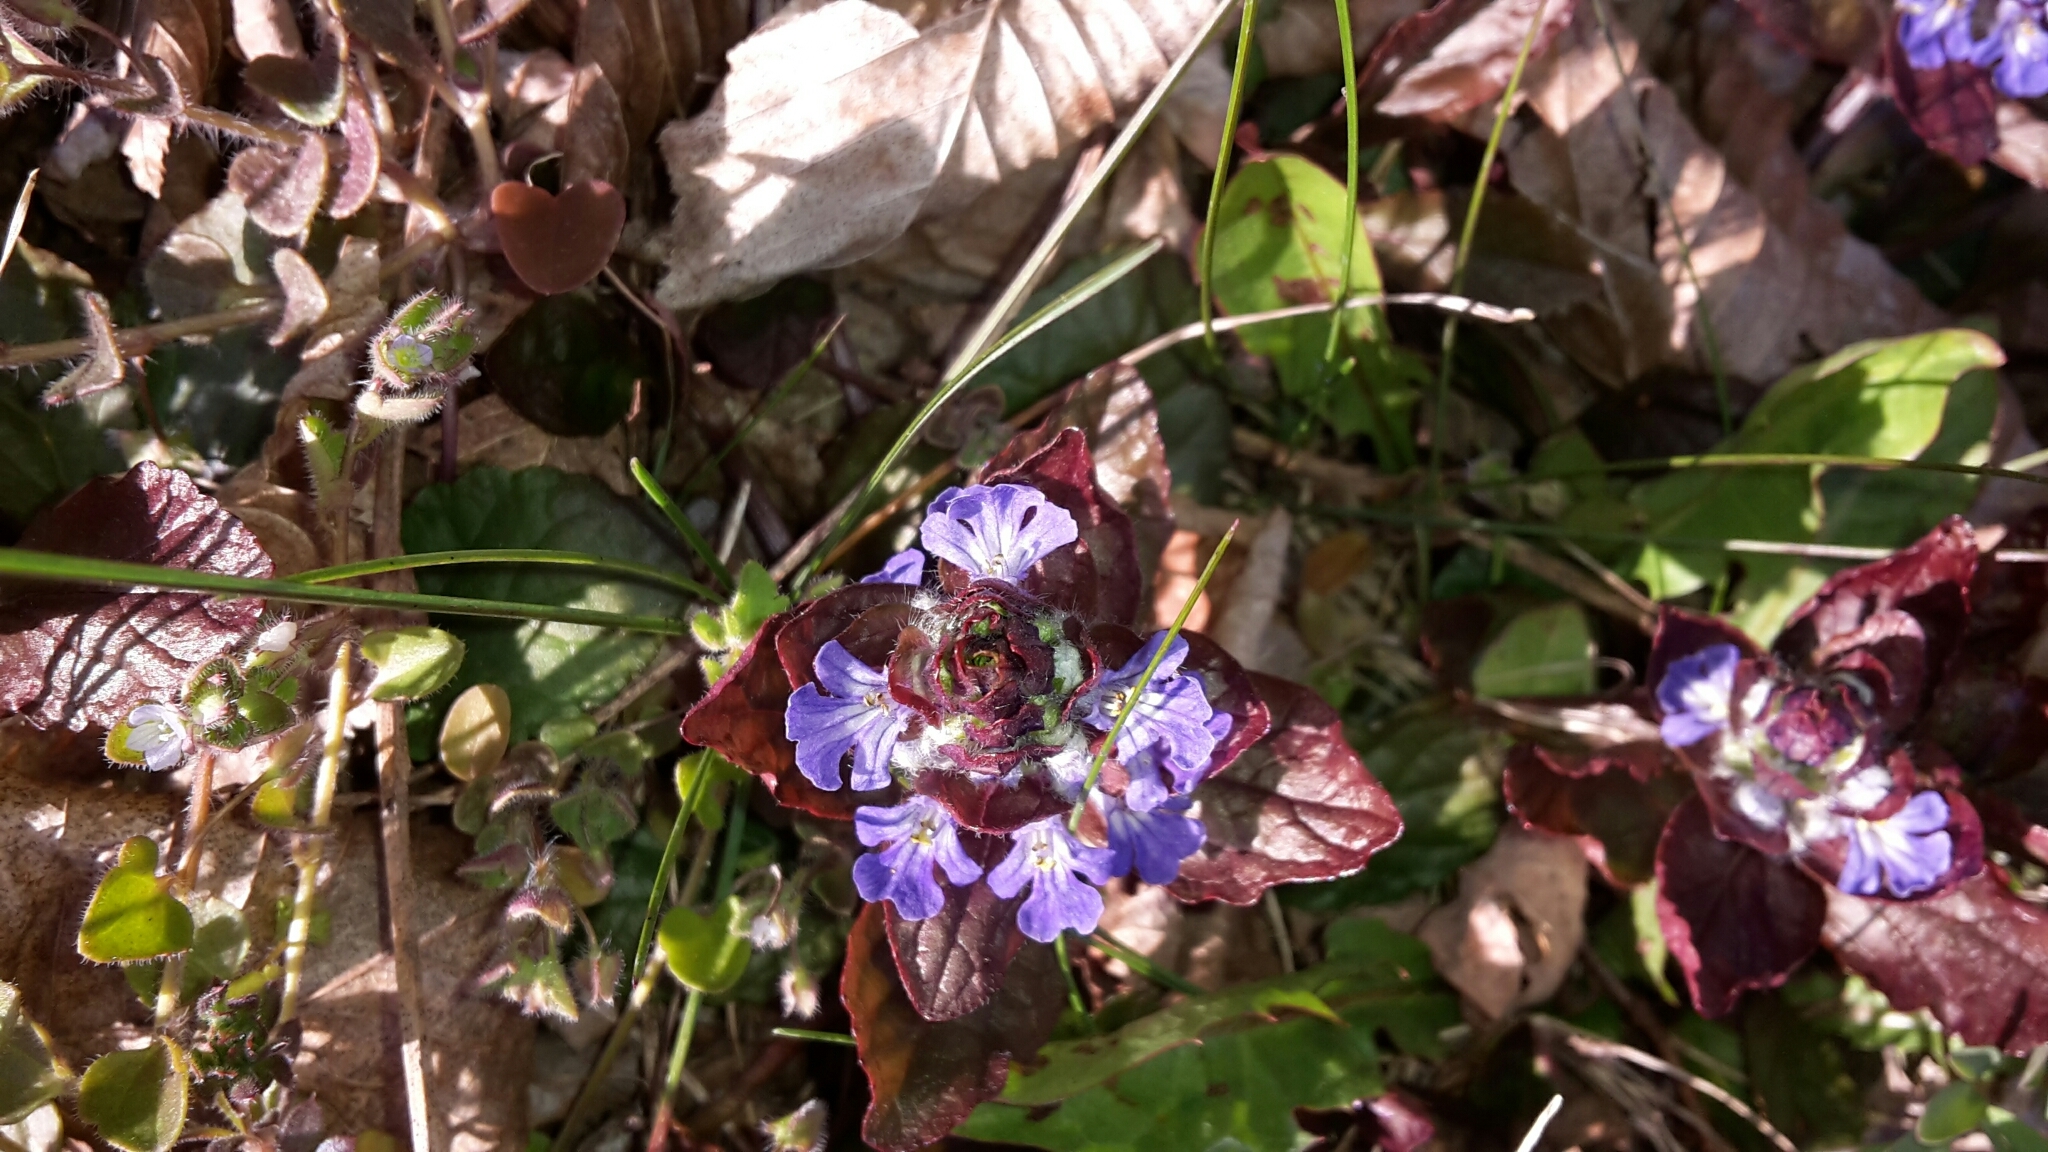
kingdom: Plantae
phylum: Tracheophyta
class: Magnoliopsida
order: Lamiales
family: Lamiaceae
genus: Ajuga
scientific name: Ajuga reptans
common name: Bugle
